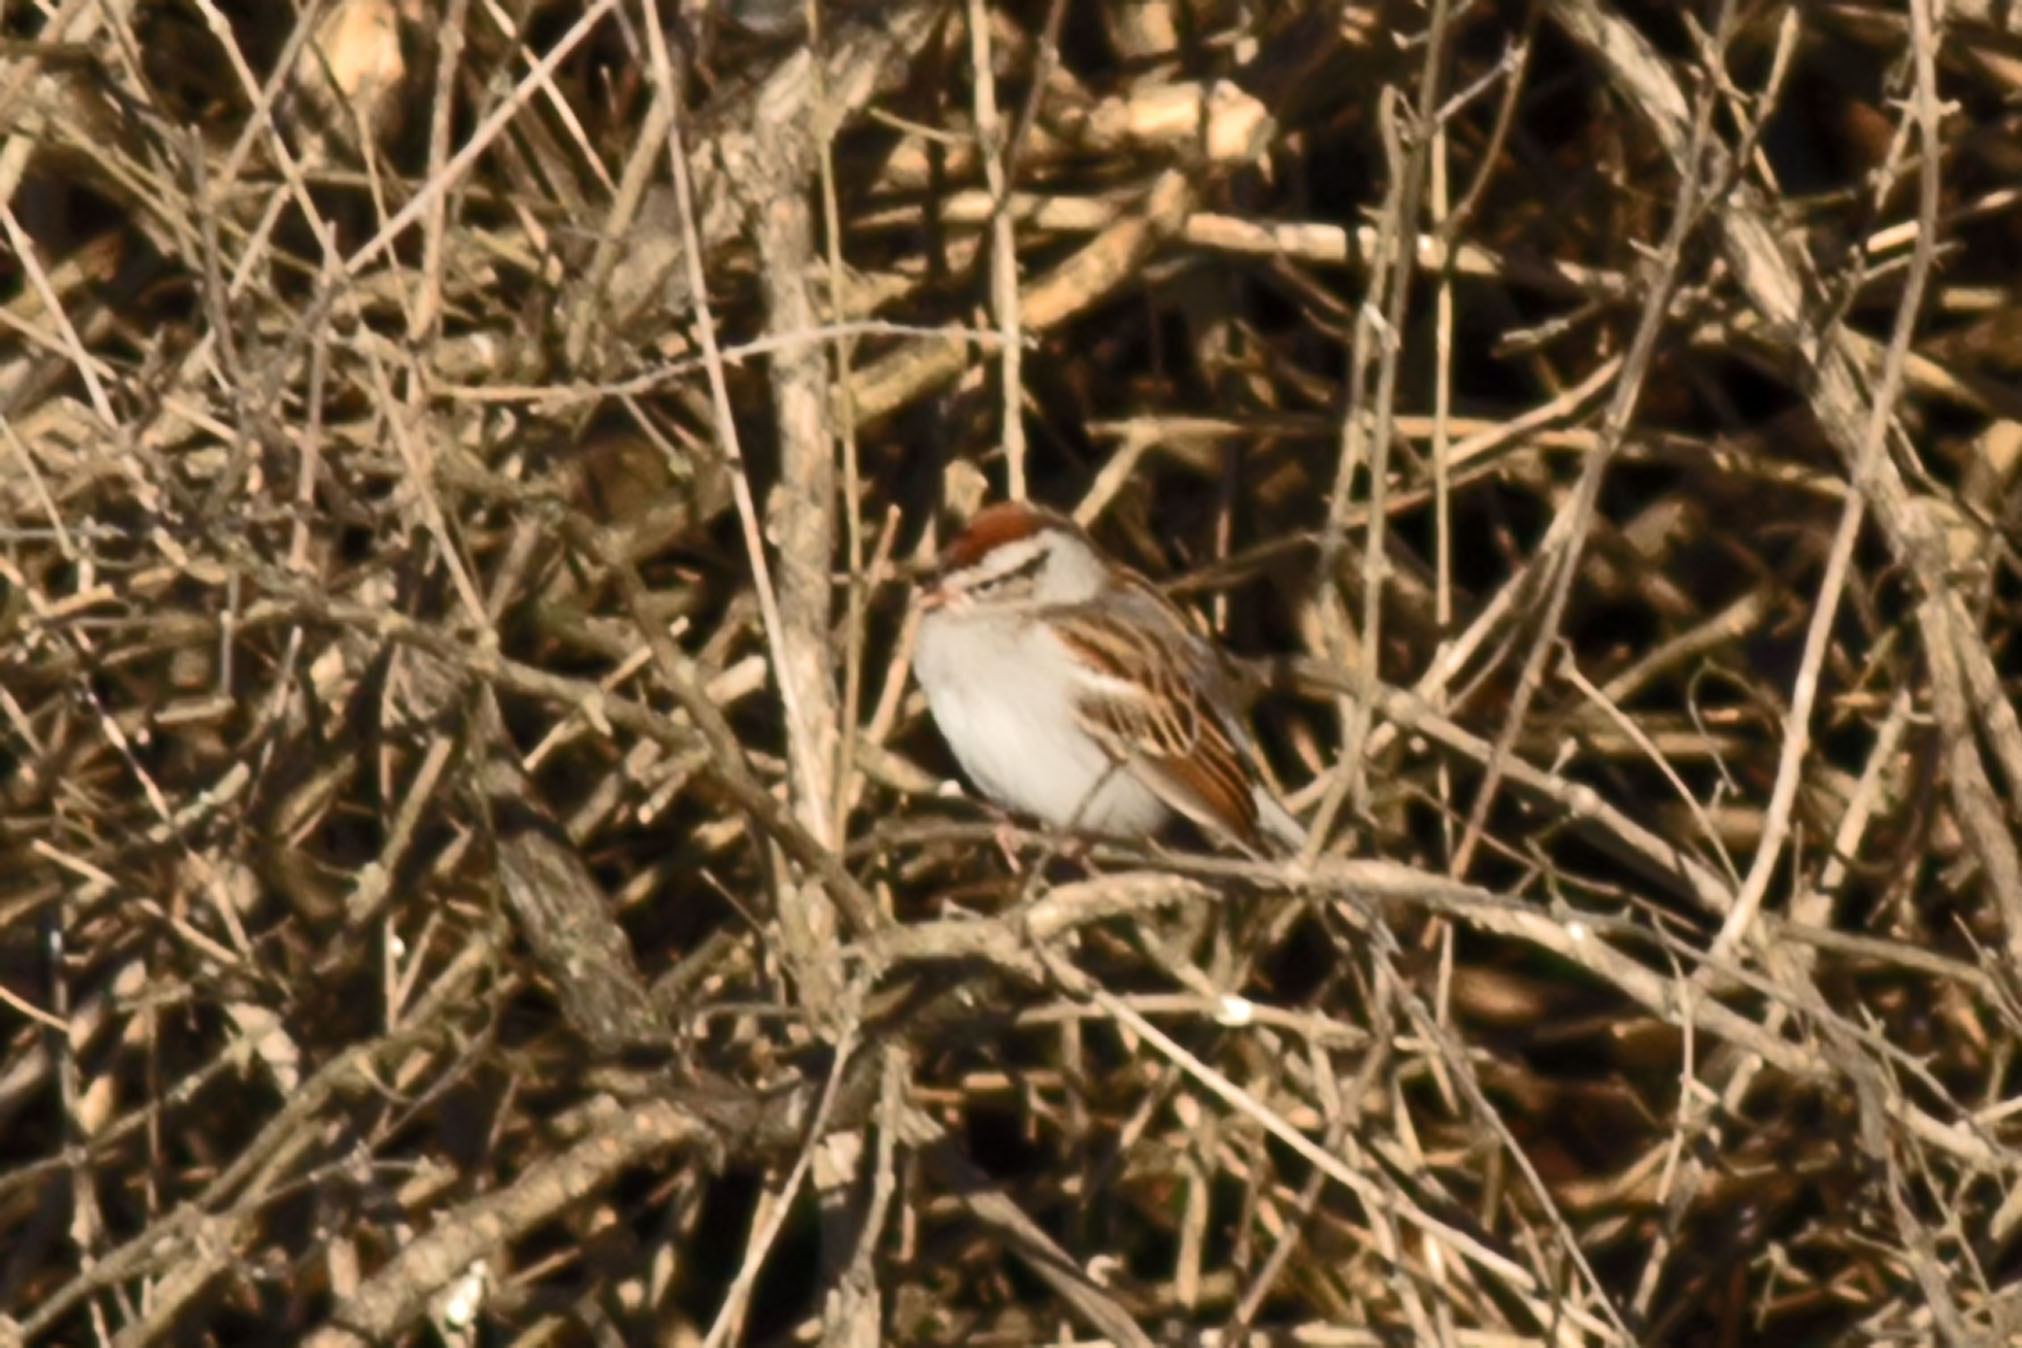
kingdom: Animalia
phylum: Chordata
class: Aves
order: Passeriformes
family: Passerellidae
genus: Spizella
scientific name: Spizella passerina
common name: Chipping sparrow
